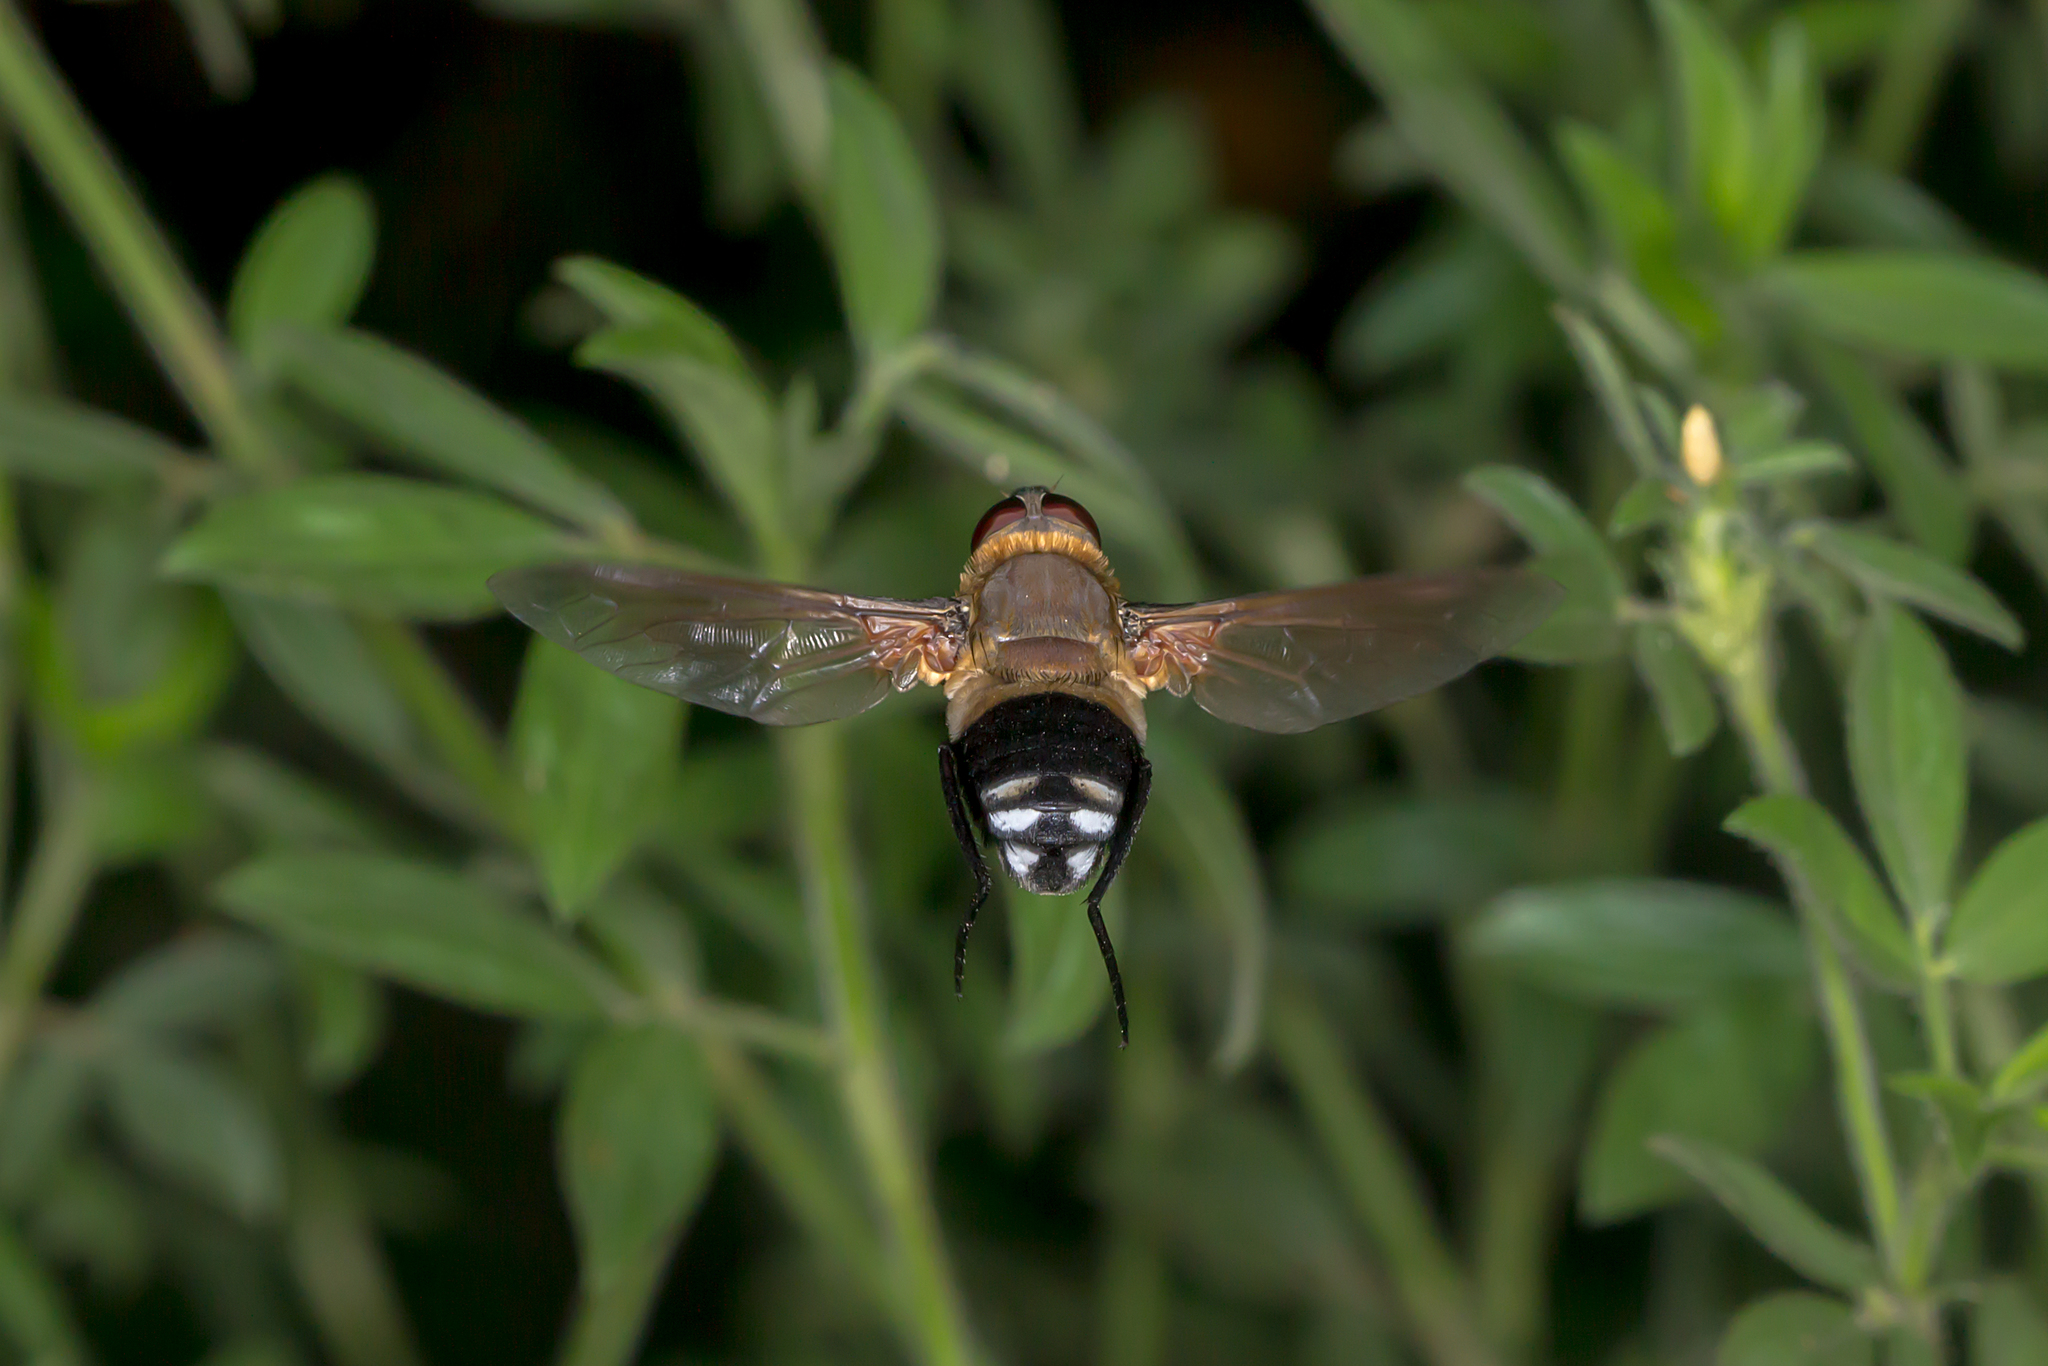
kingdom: Animalia
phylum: Arthropoda
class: Insecta
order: Diptera
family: Bombyliidae
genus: Ligyra
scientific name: Ligyra satyrus
